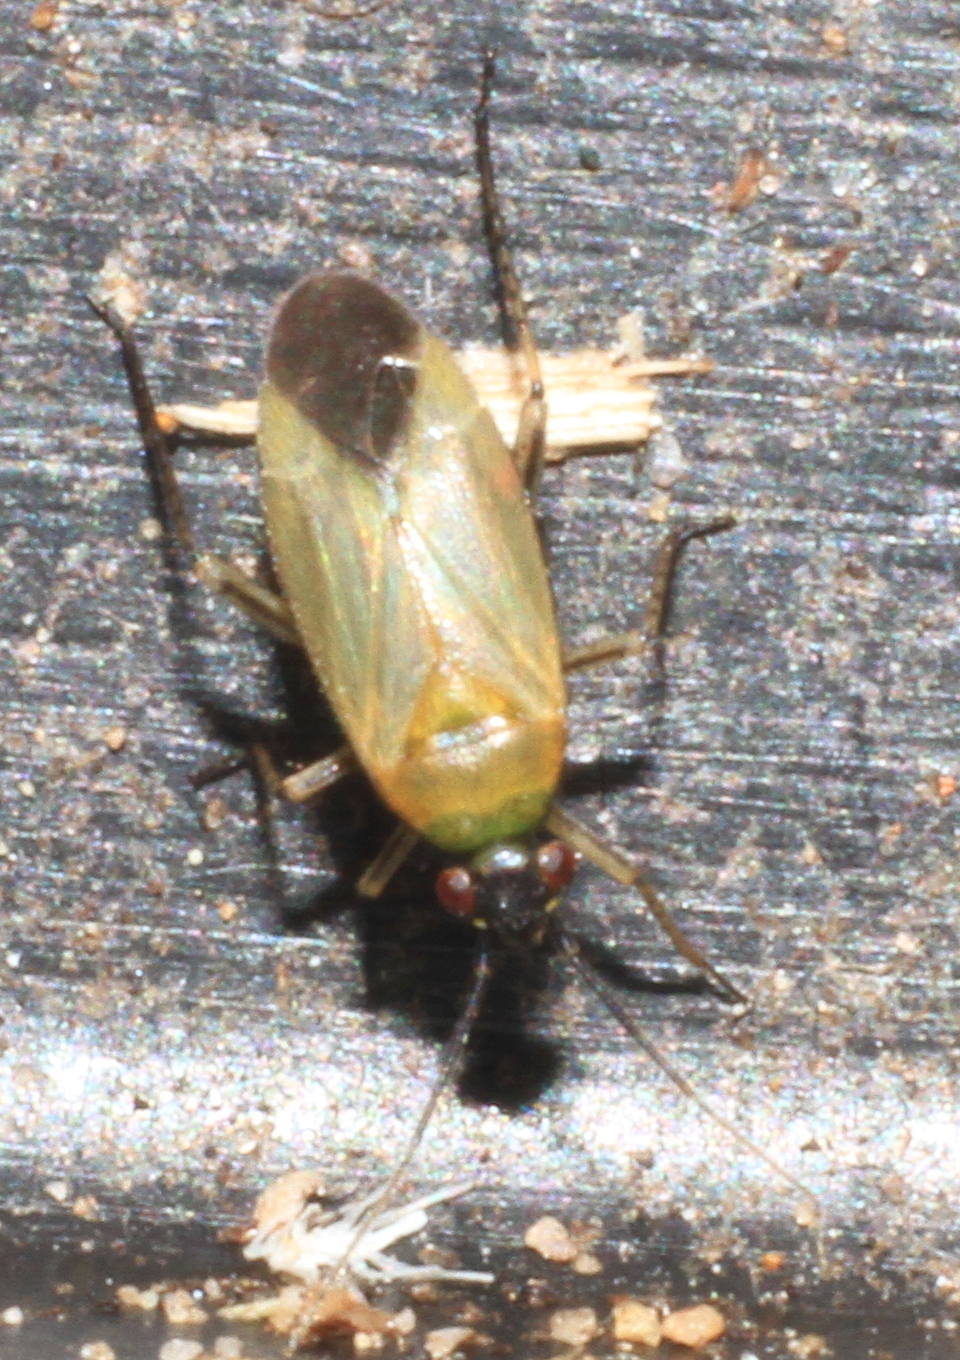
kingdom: Animalia
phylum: Arthropoda
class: Insecta
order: Hemiptera
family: Miridae
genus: Plagiognathus
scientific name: Plagiognathus arbustorum
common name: Plant bug
